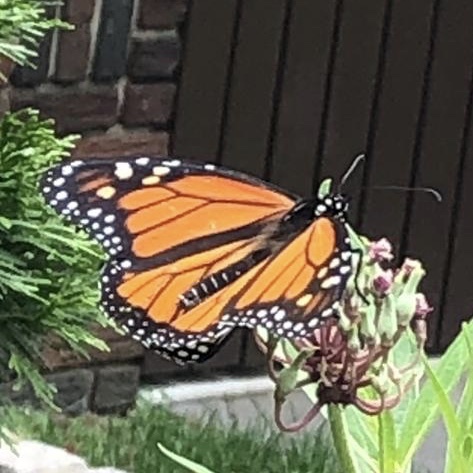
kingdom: Animalia
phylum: Arthropoda
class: Insecta
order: Lepidoptera
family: Nymphalidae
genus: Danaus
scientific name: Danaus plexippus
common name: Monarch
